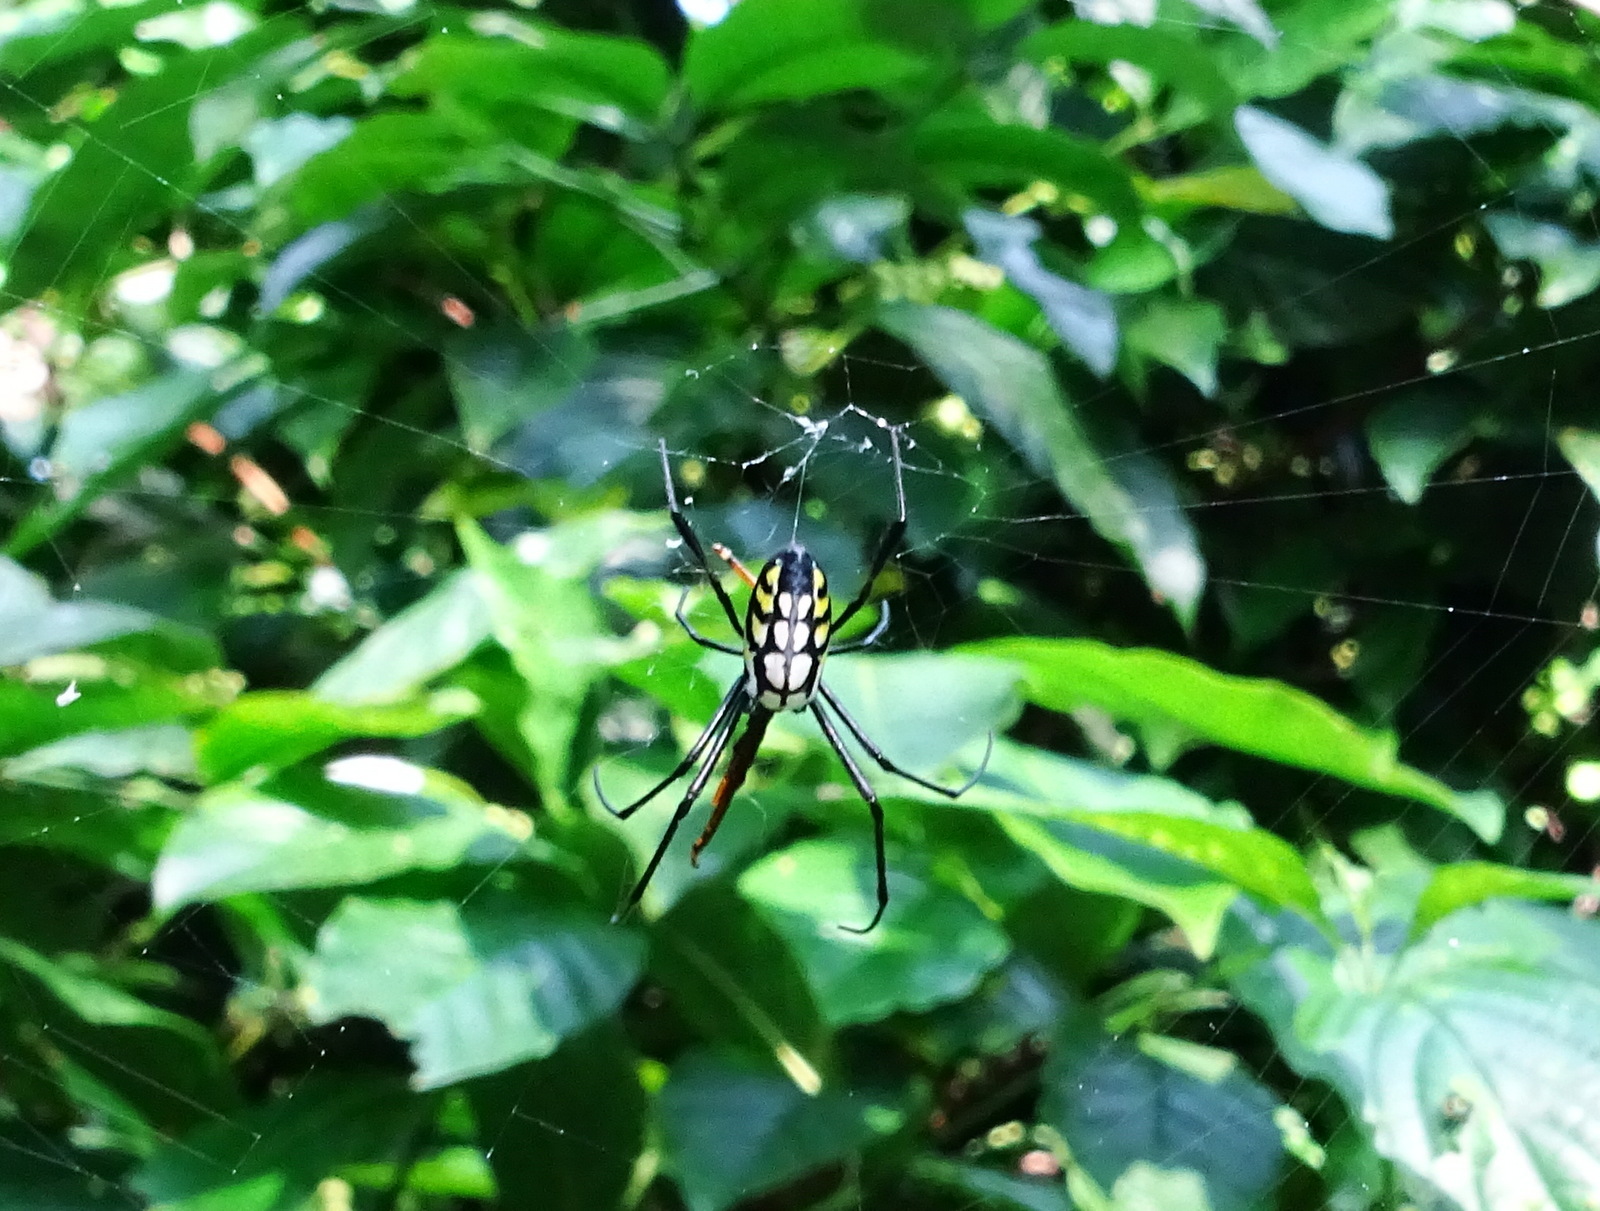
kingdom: Animalia
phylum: Arthropoda
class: Arachnida
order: Araneae
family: Tetragnathidae
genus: Leucauge
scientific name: Leucauge tessellata
